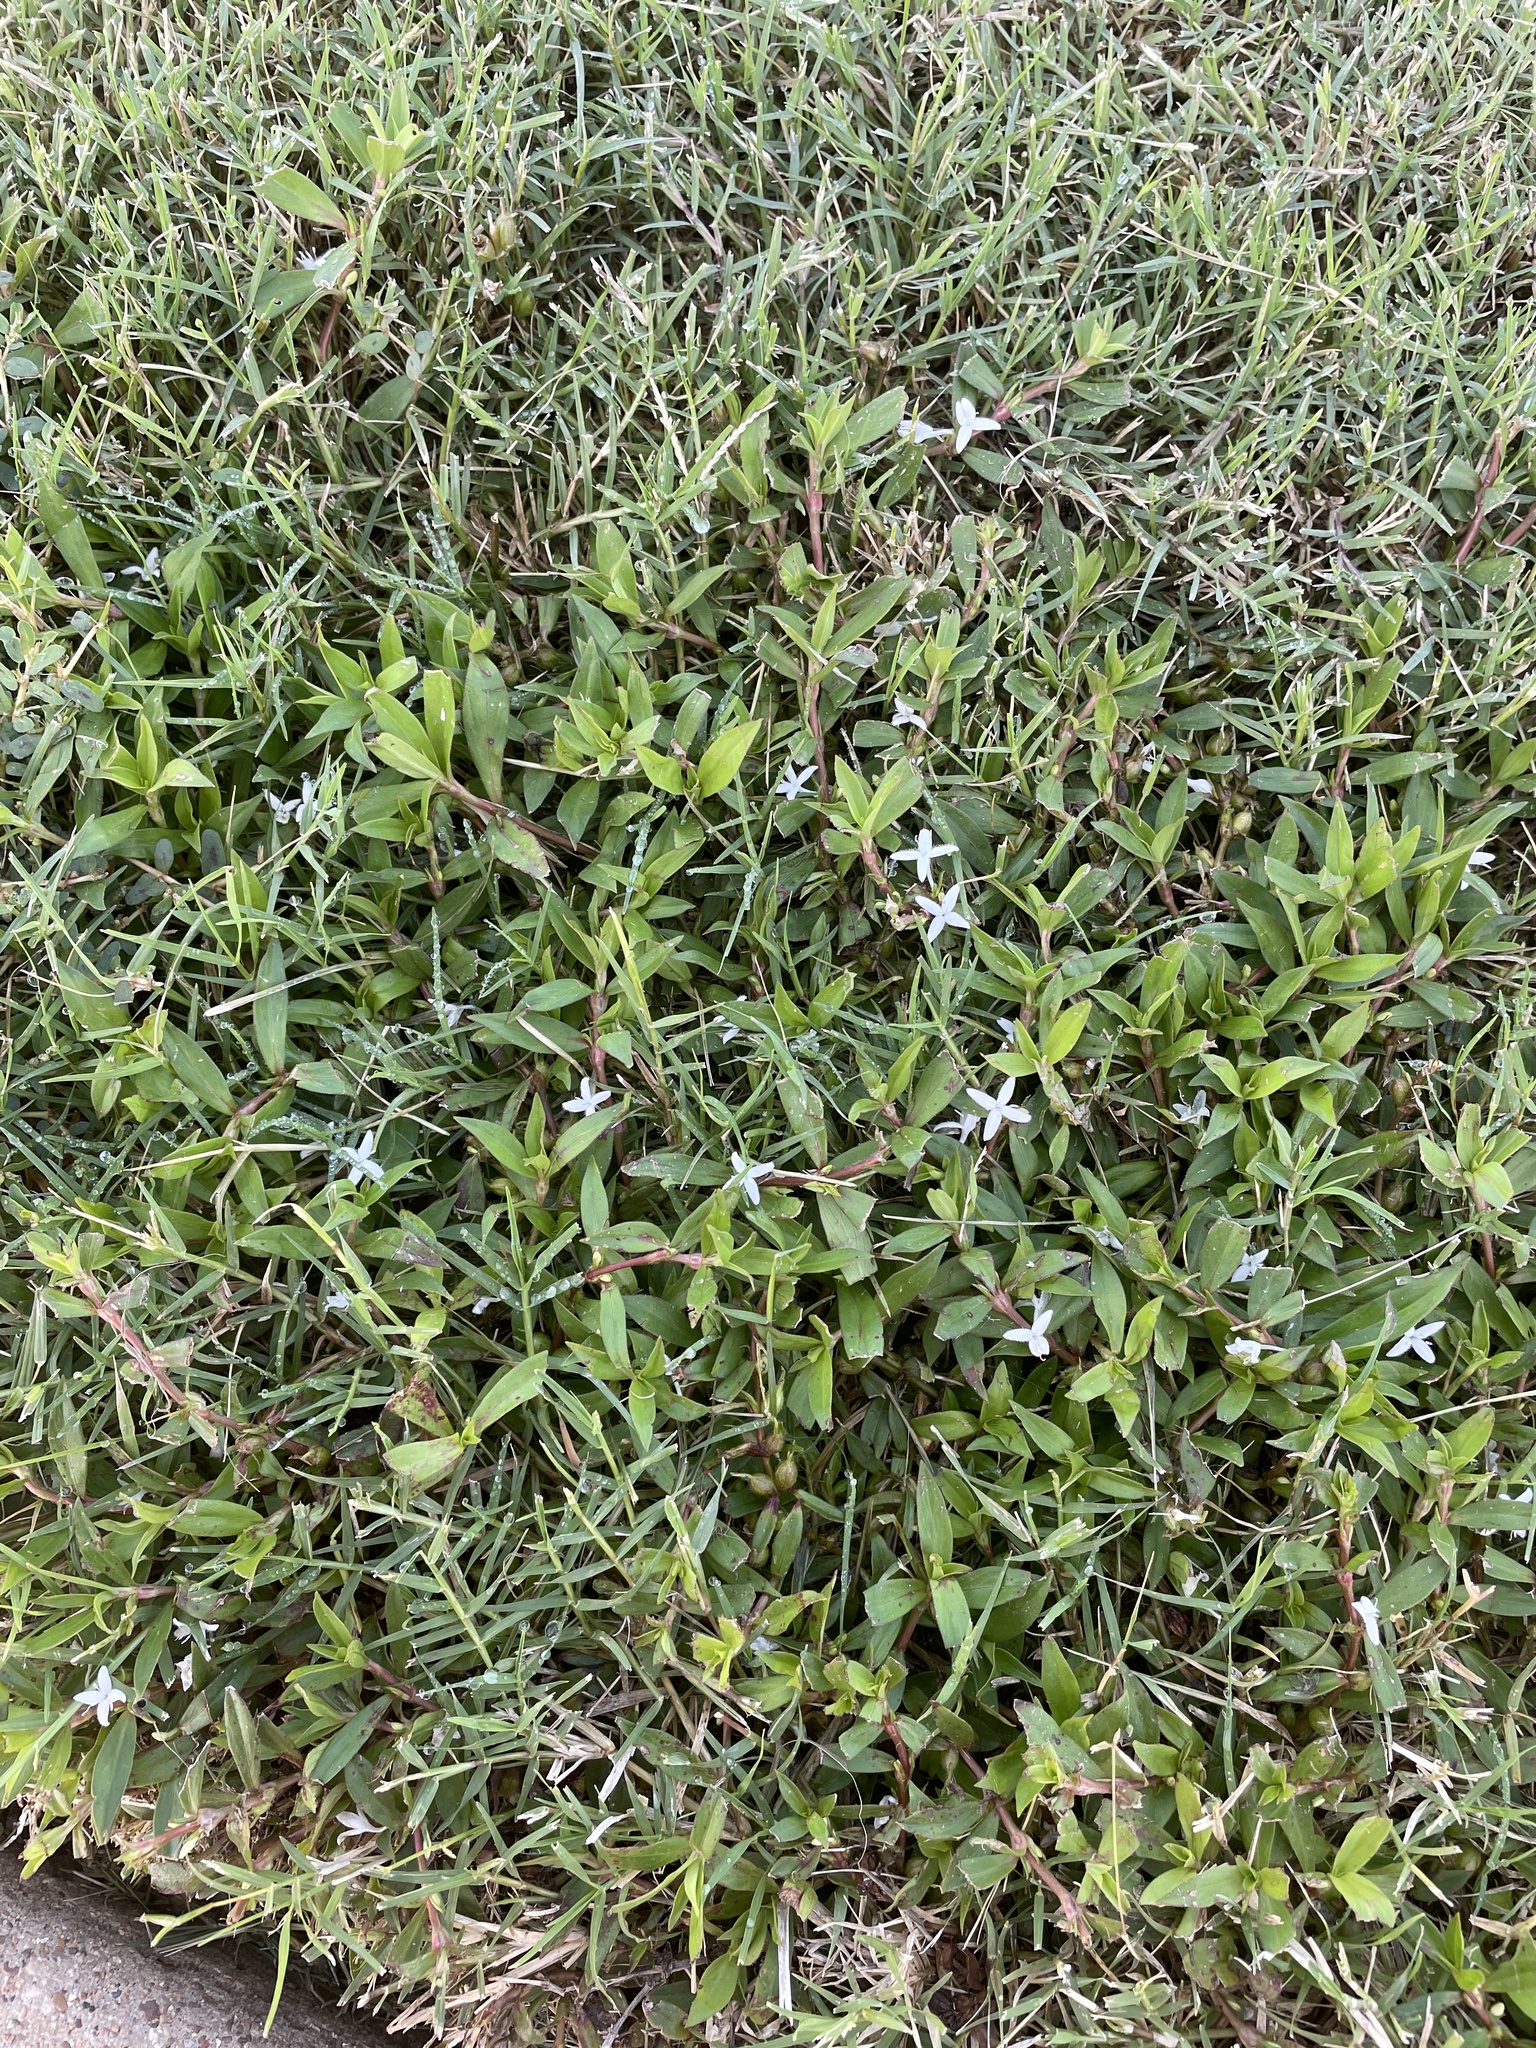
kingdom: Plantae
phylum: Tracheophyta
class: Magnoliopsida
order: Gentianales
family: Rubiaceae
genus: Diodia
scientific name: Diodia virginiana
